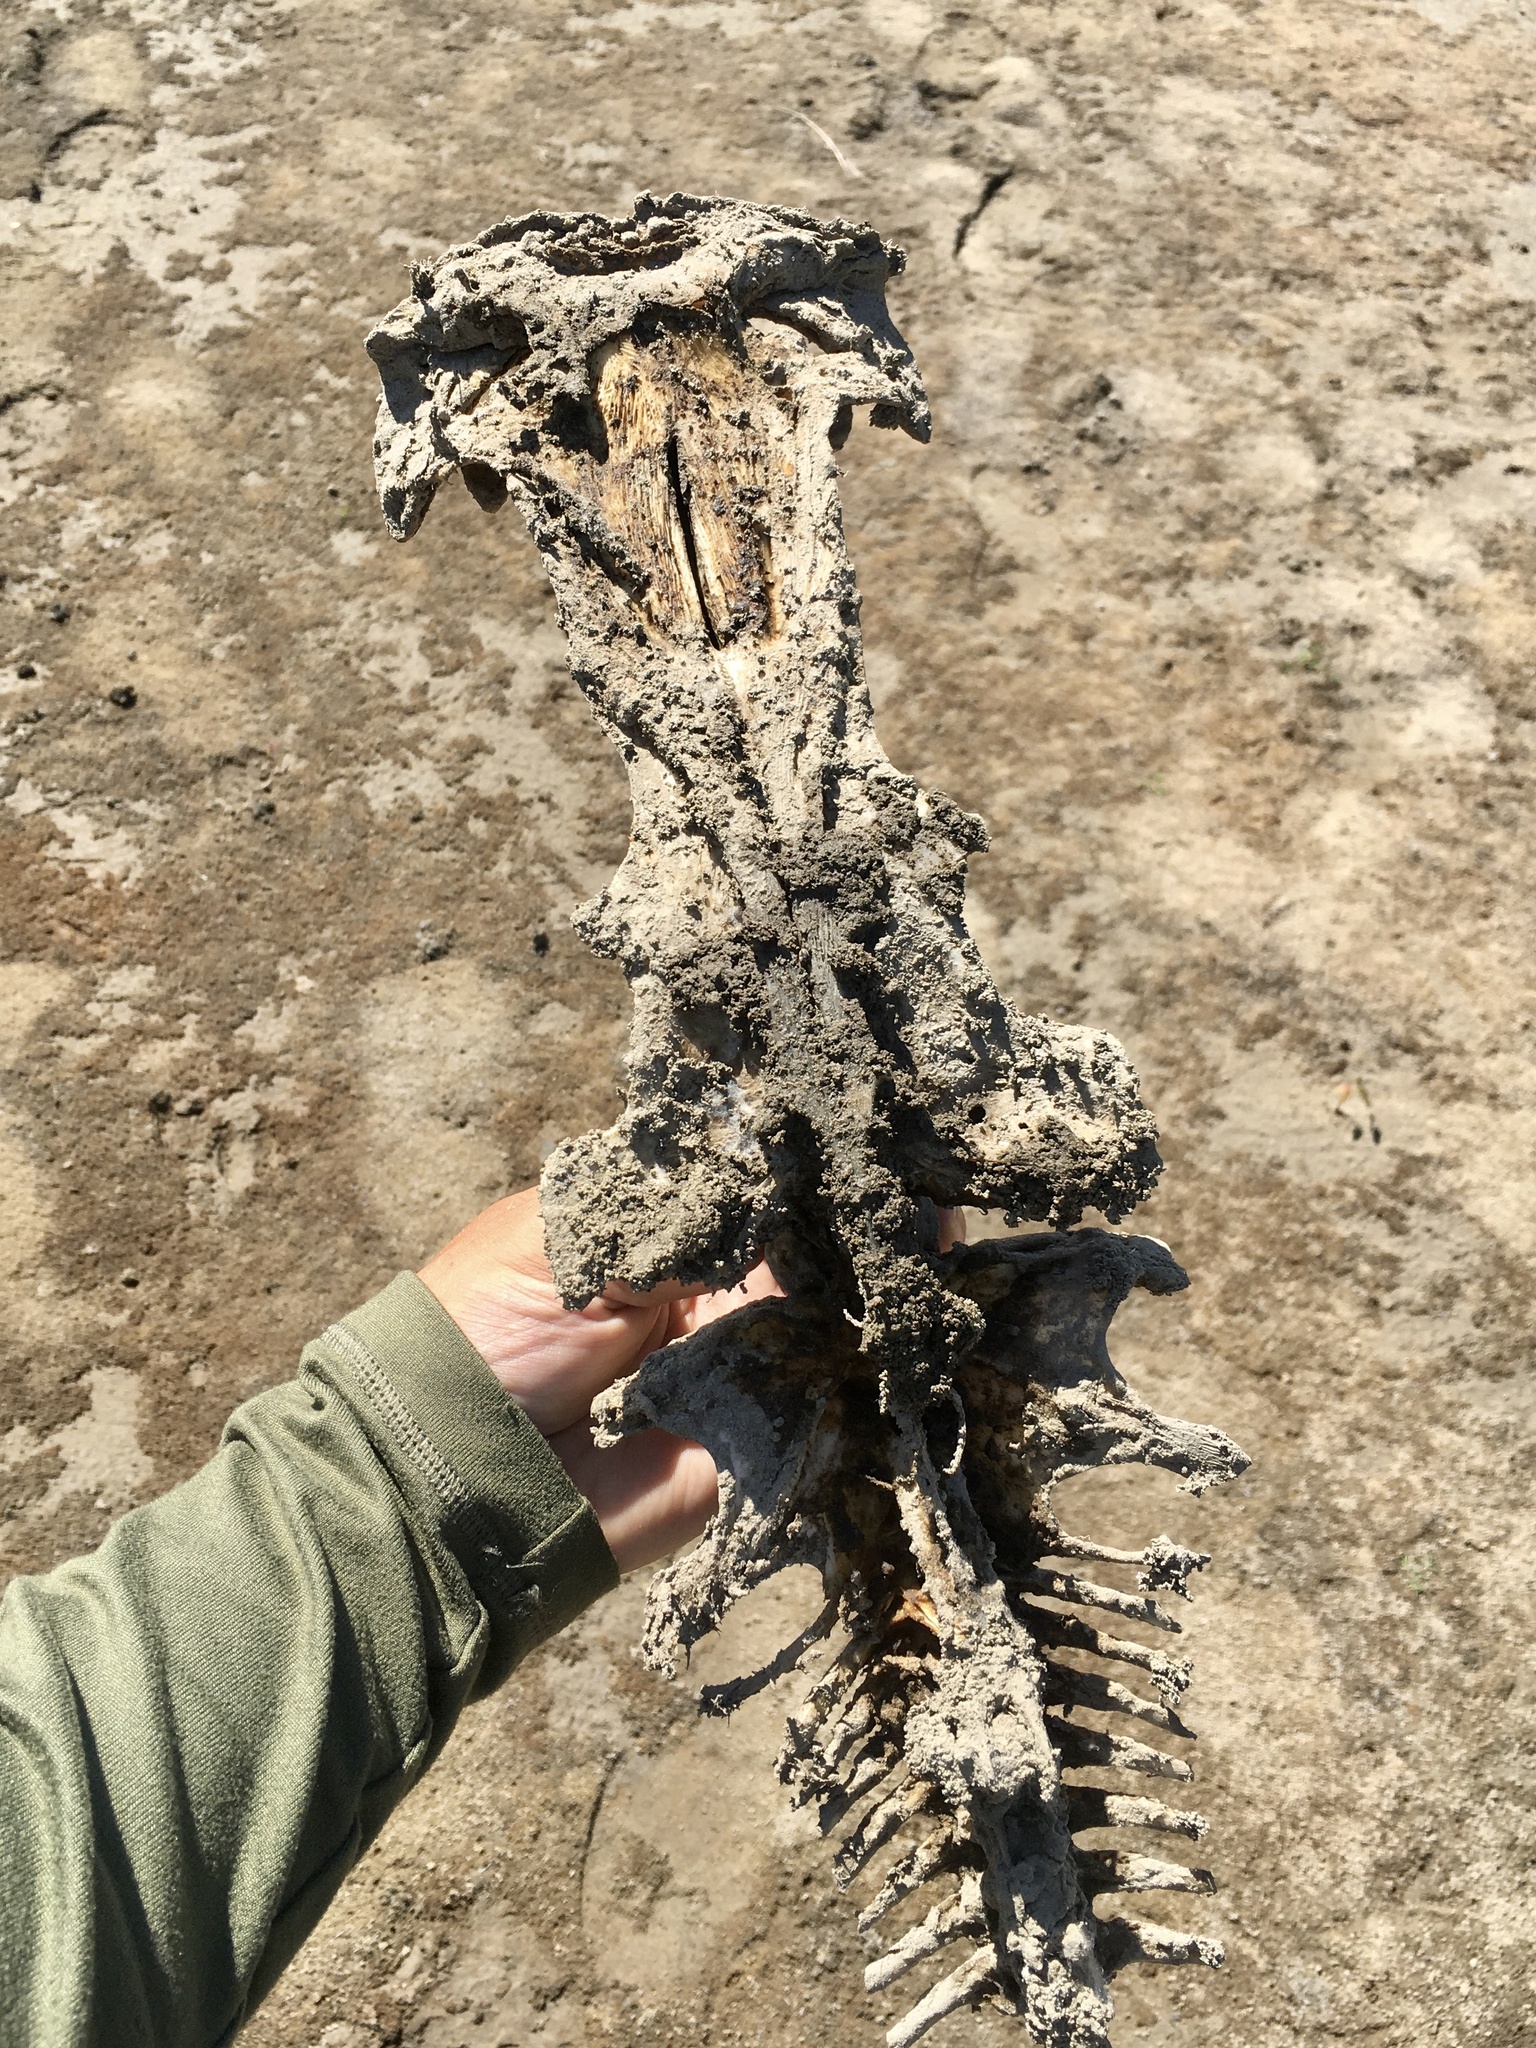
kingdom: Animalia
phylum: Chordata
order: Siluriformes
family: Ictaluridae
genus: Pylodictis
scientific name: Pylodictis olivaris
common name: Flathead catfish
